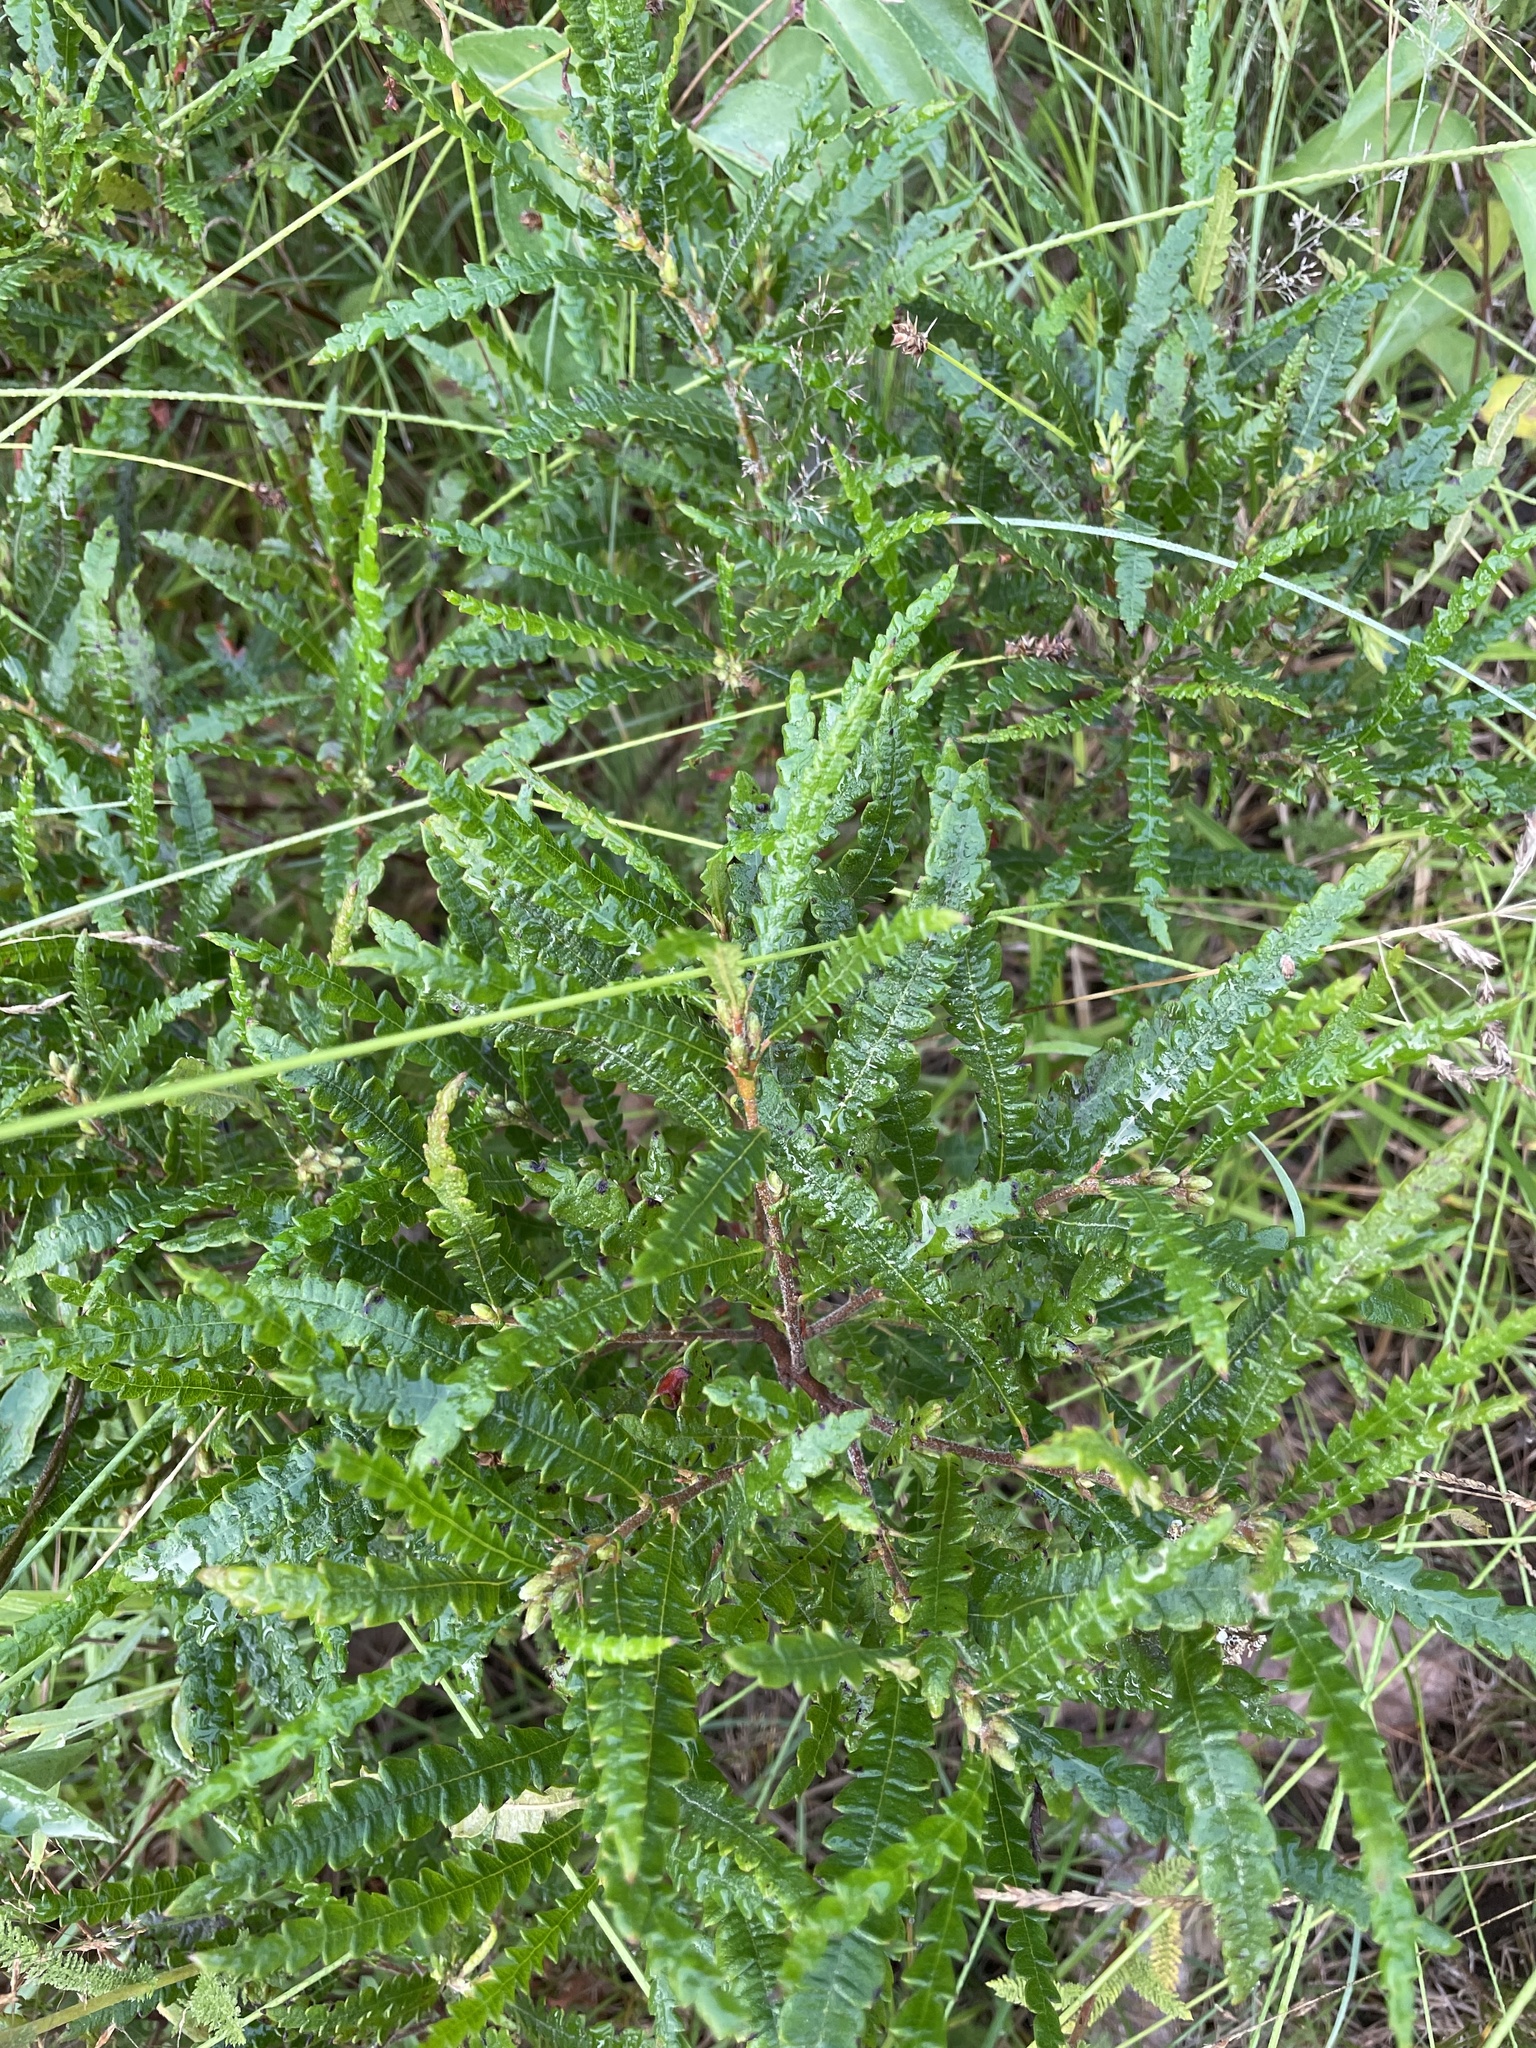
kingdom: Plantae
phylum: Tracheophyta
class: Magnoliopsida
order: Fagales
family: Myricaceae
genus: Comptonia
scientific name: Comptonia peregrina
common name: Sweet-fern
